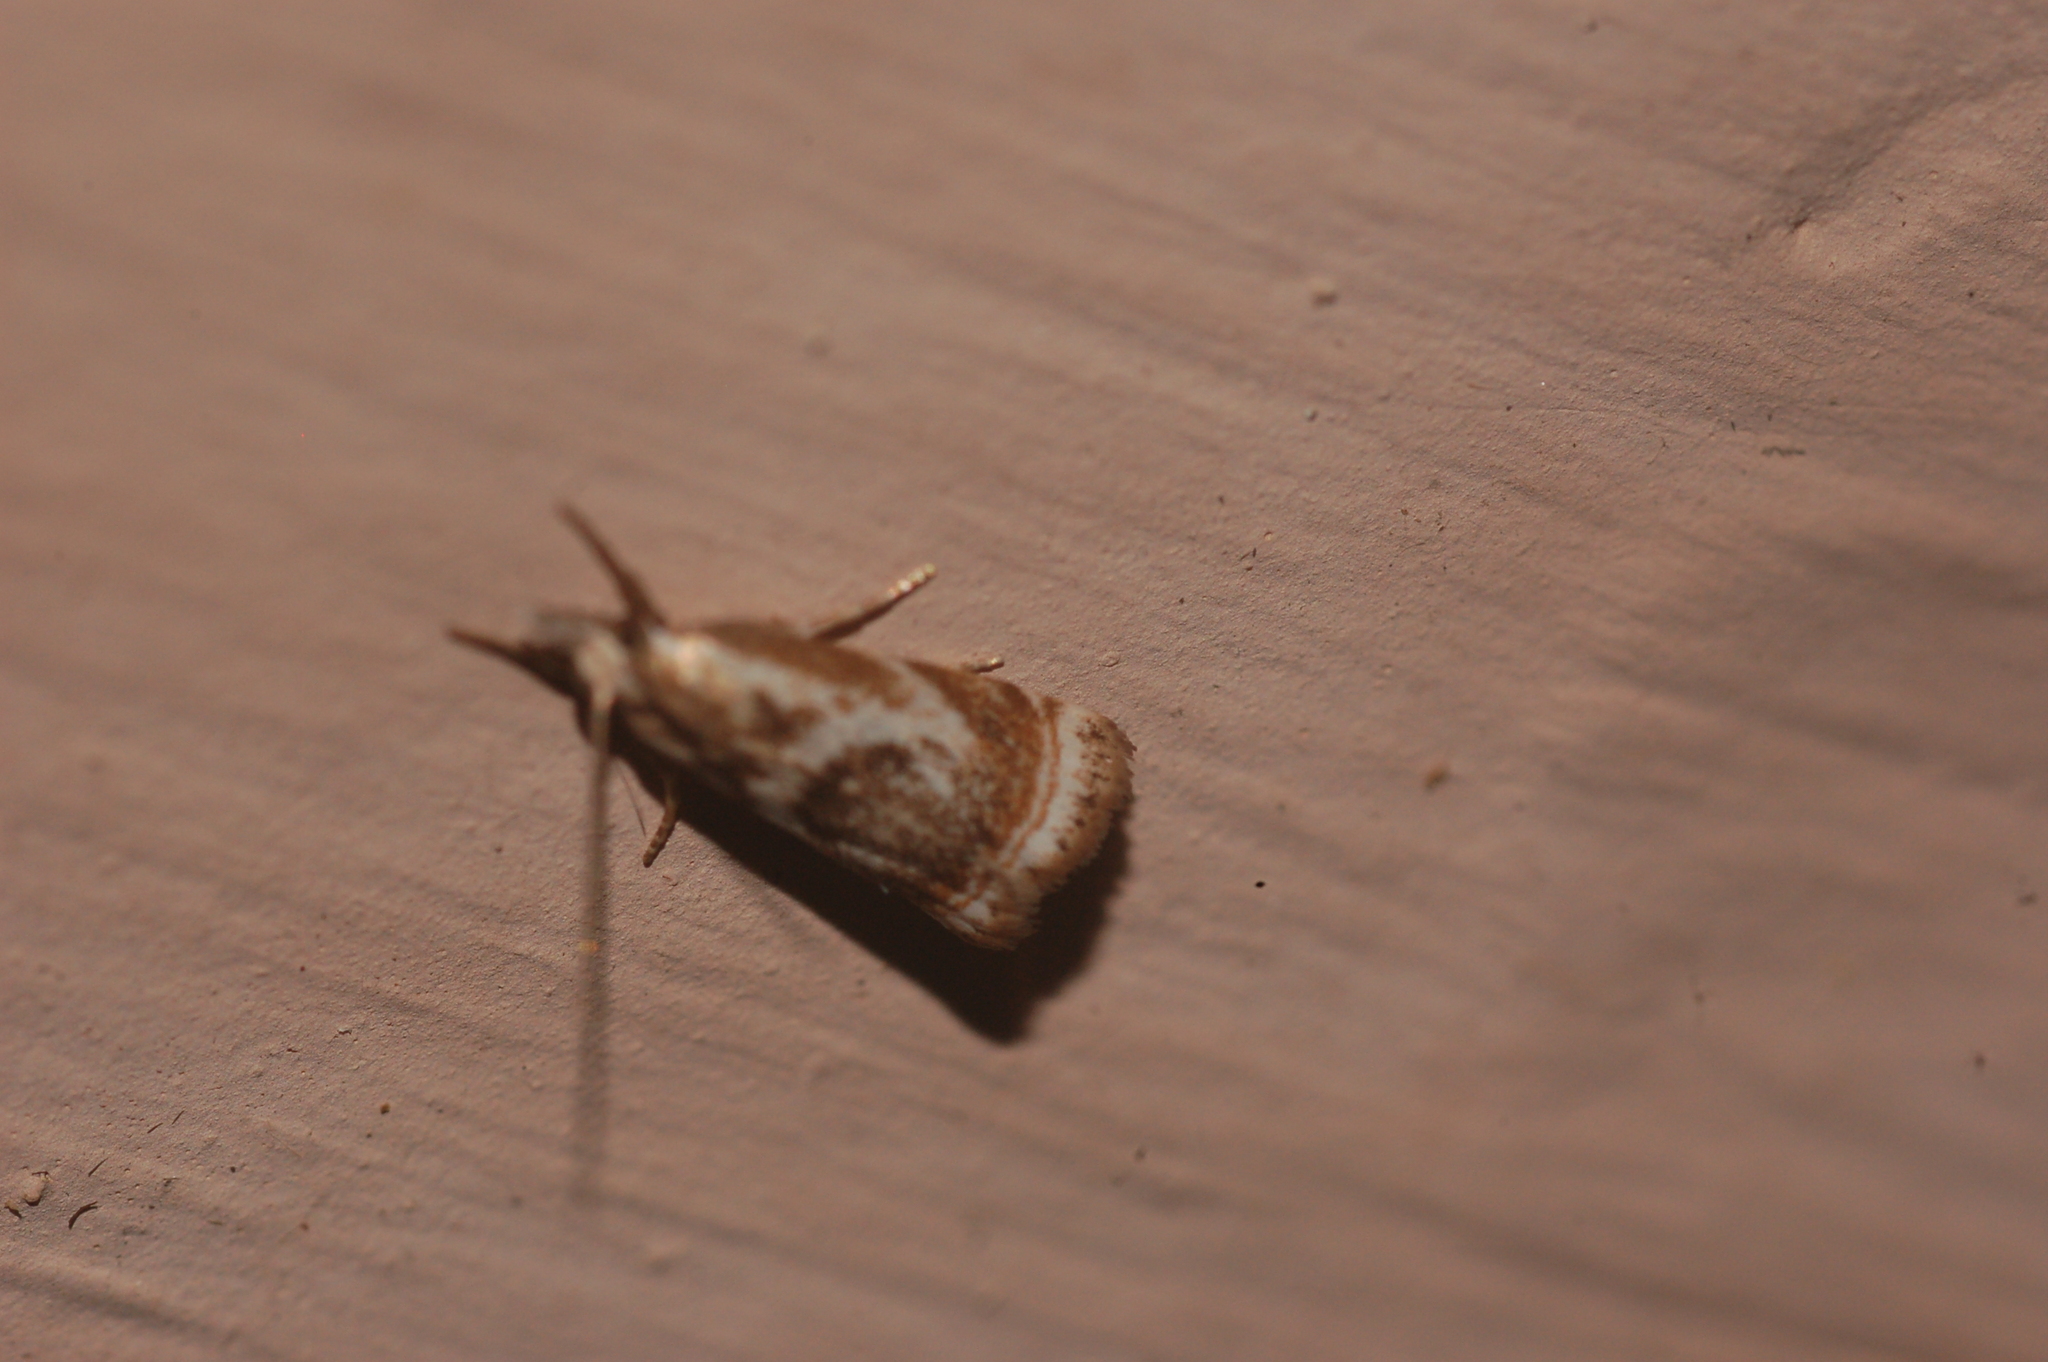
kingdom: Animalia
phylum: Arthropoda
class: Insecta
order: Lepidoptera
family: Crambidae
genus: Microcrambus
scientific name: Microcrambus elegans
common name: Elegant grass-veneer
